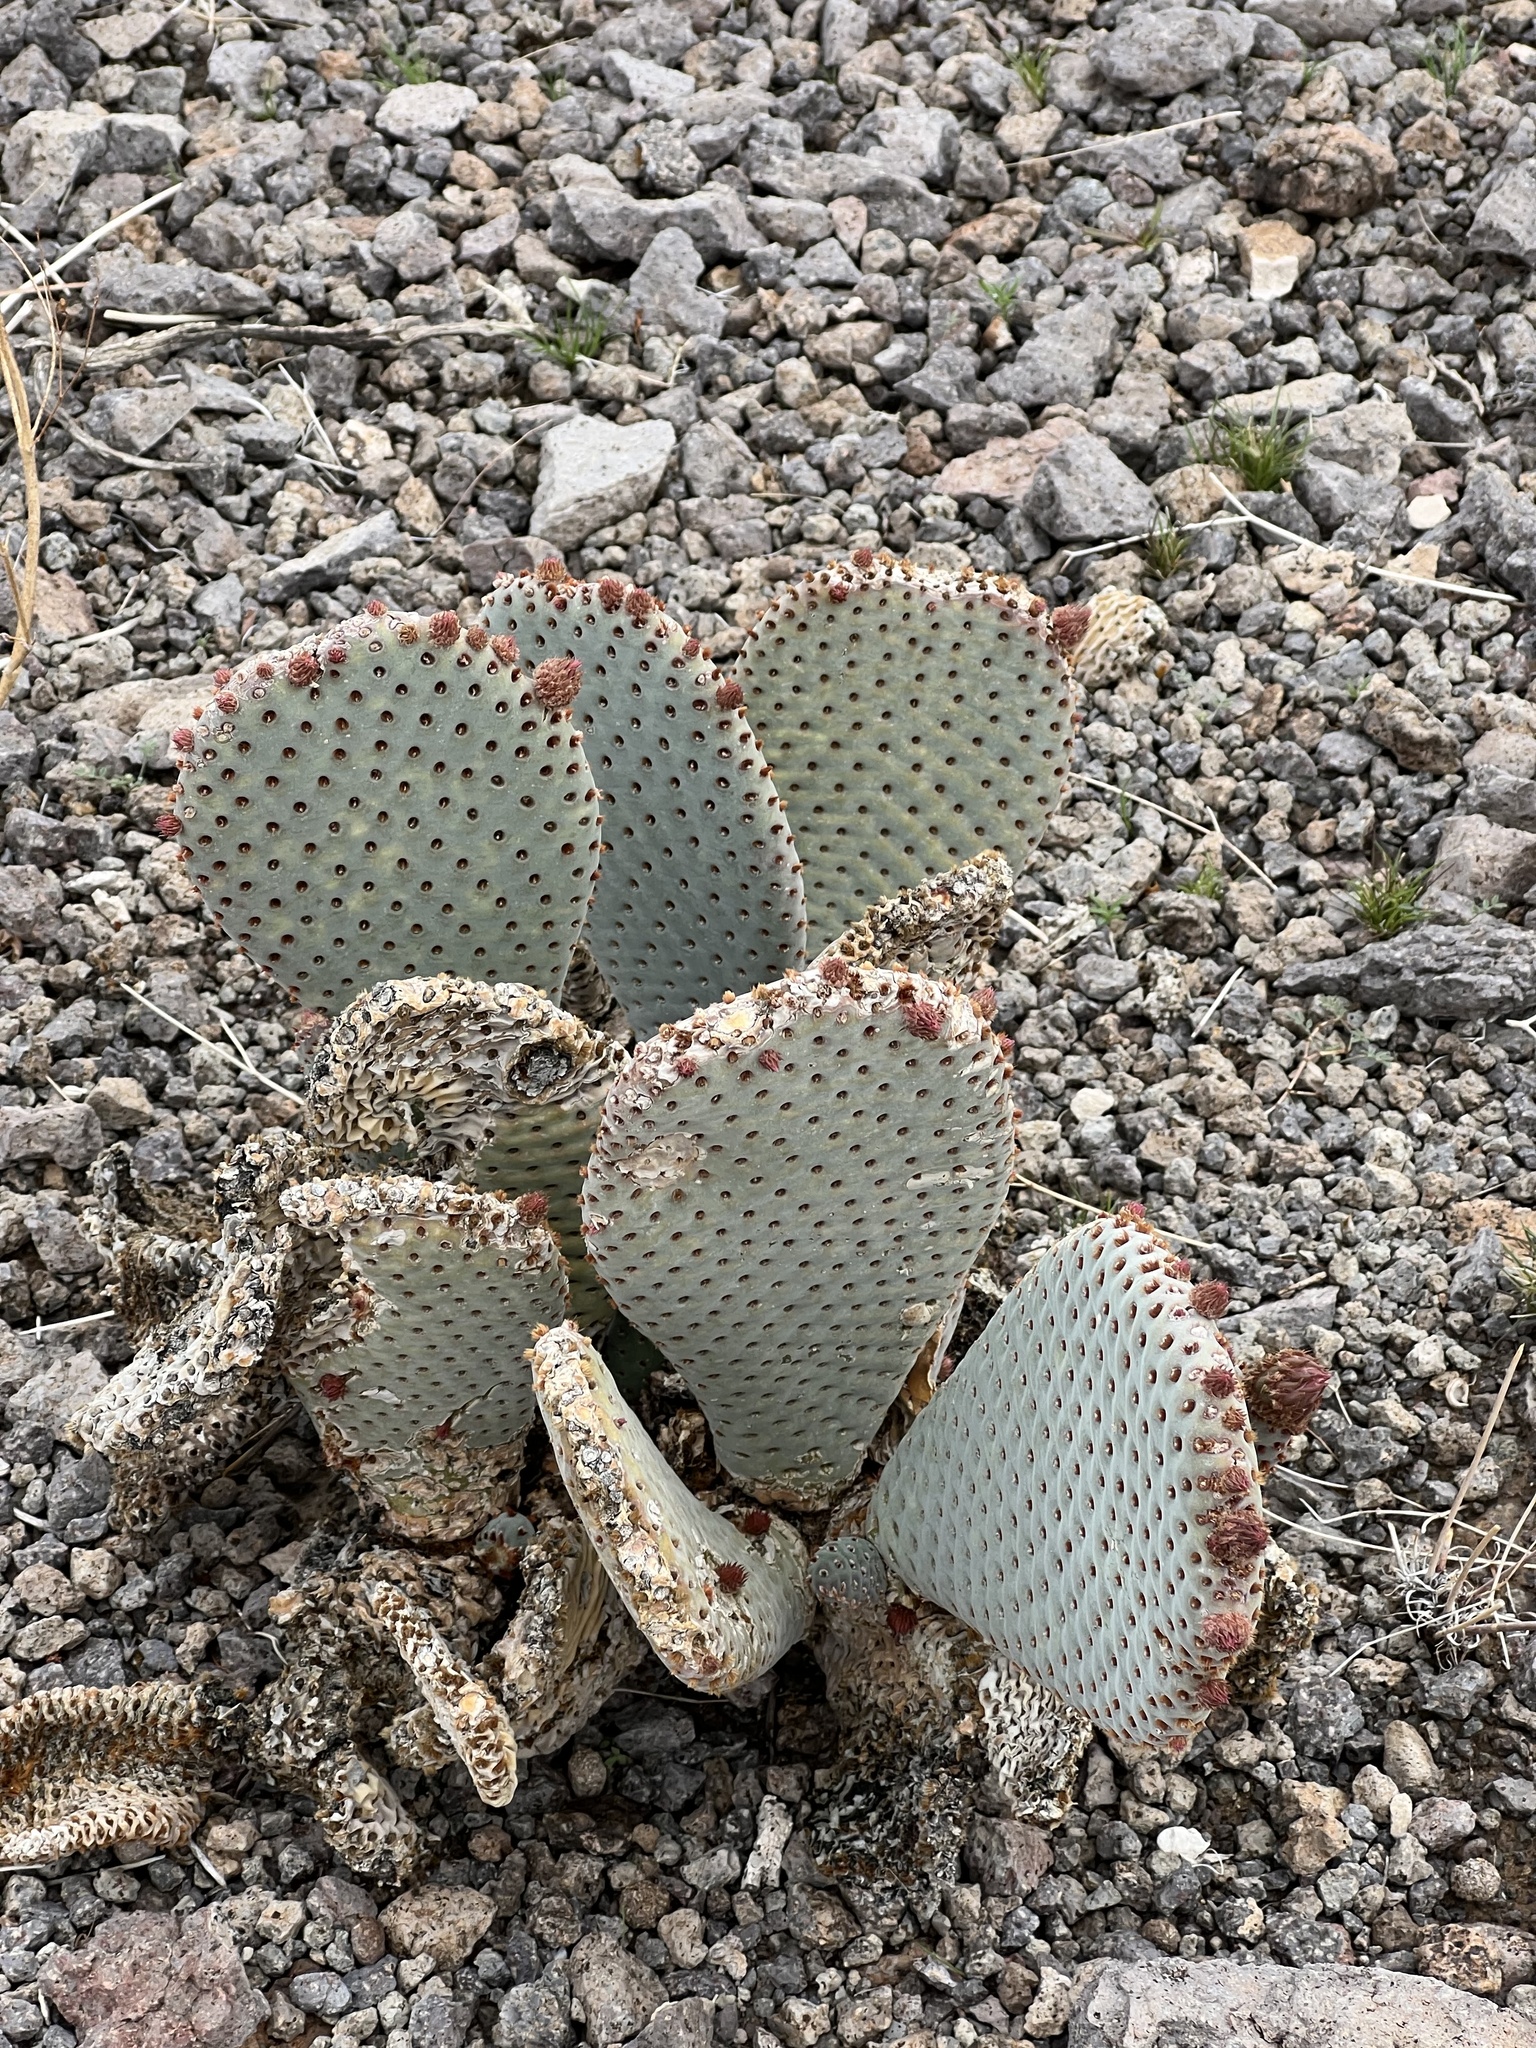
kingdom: Plantae
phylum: Tracheophyta
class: Magnoliopsida
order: Caryophyllales
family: Cactaceae
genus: Opuntia
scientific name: Opuntia basilaris
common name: Beavertail prickly-pear
